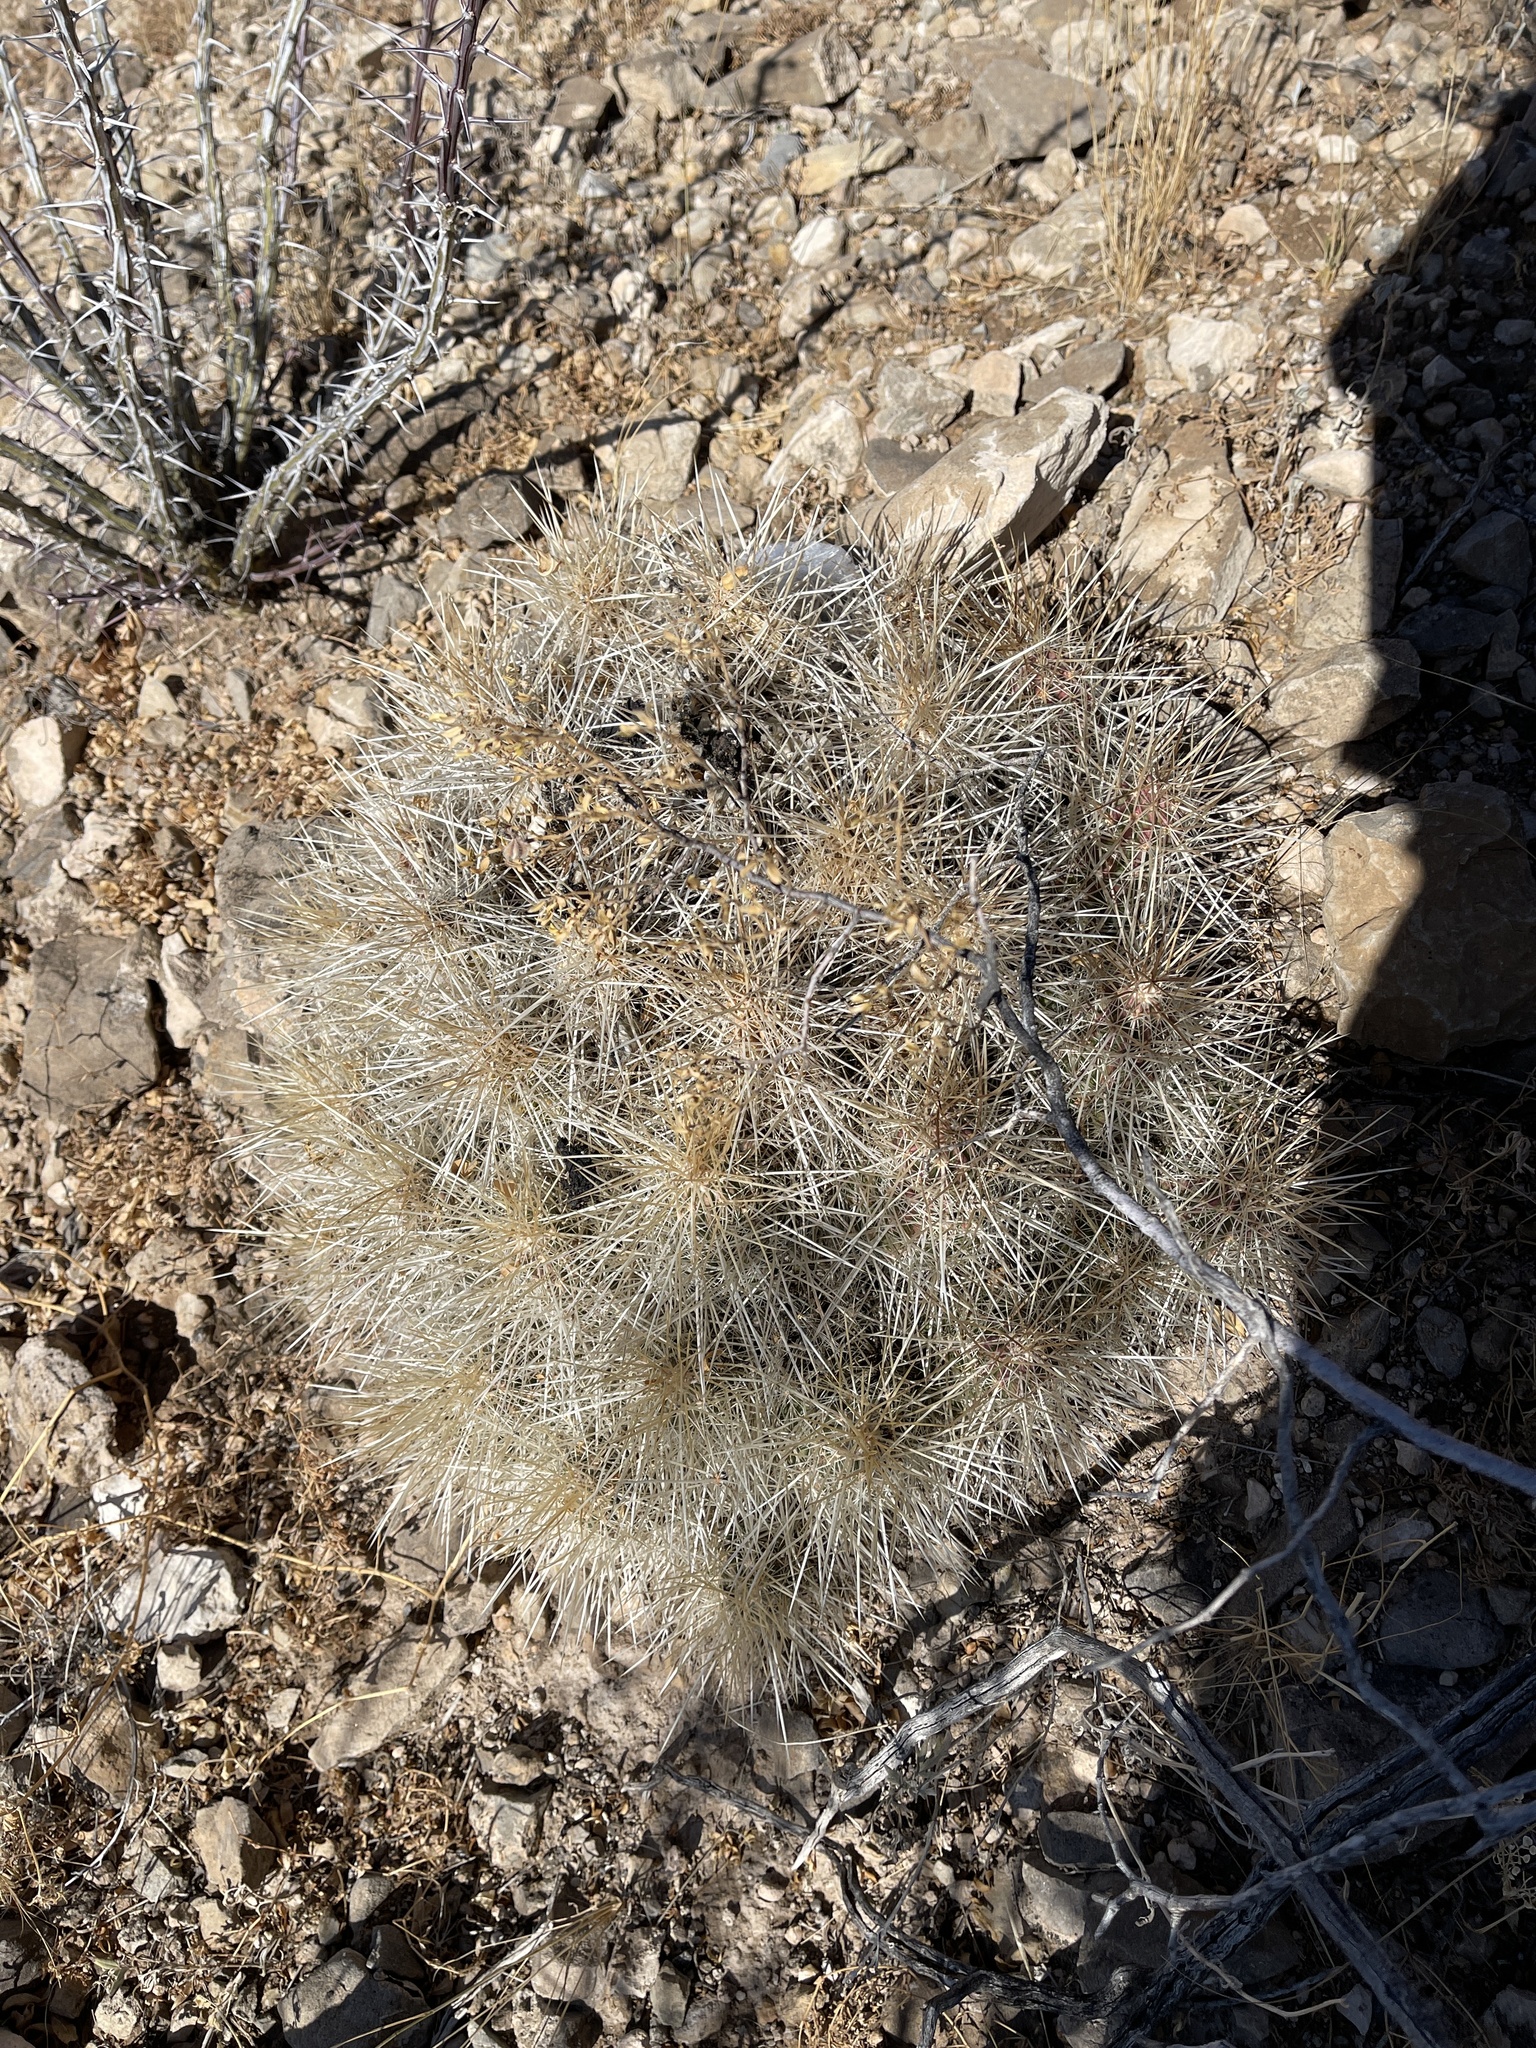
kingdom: Plantae
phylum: Tracheophyta
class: Magnoliopsida
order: Caryophyllales
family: Cactaceae
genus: Echinocereus
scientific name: Echinocereus stramineus
